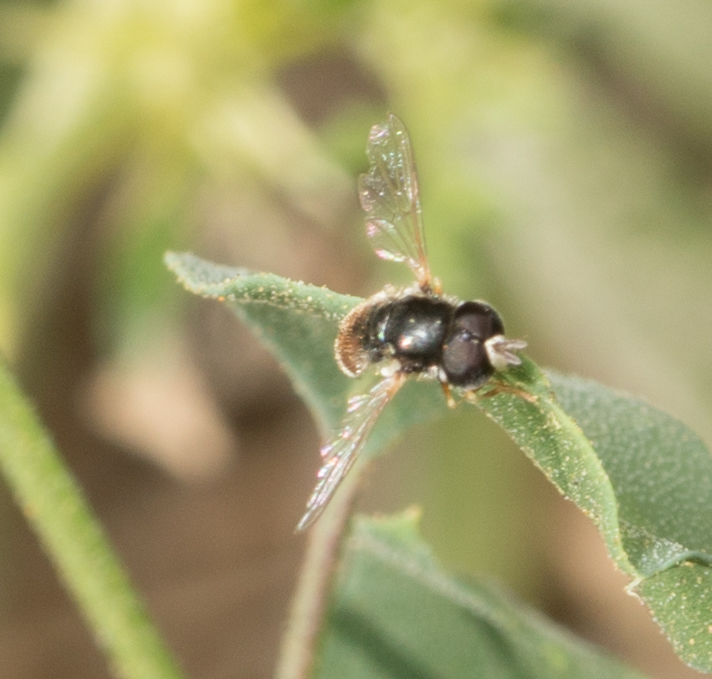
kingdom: Animalia
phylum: Arthropoda
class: Insecta
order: Diptera
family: Syrphidae
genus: Paragus
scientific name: Paragus haemorrhous
